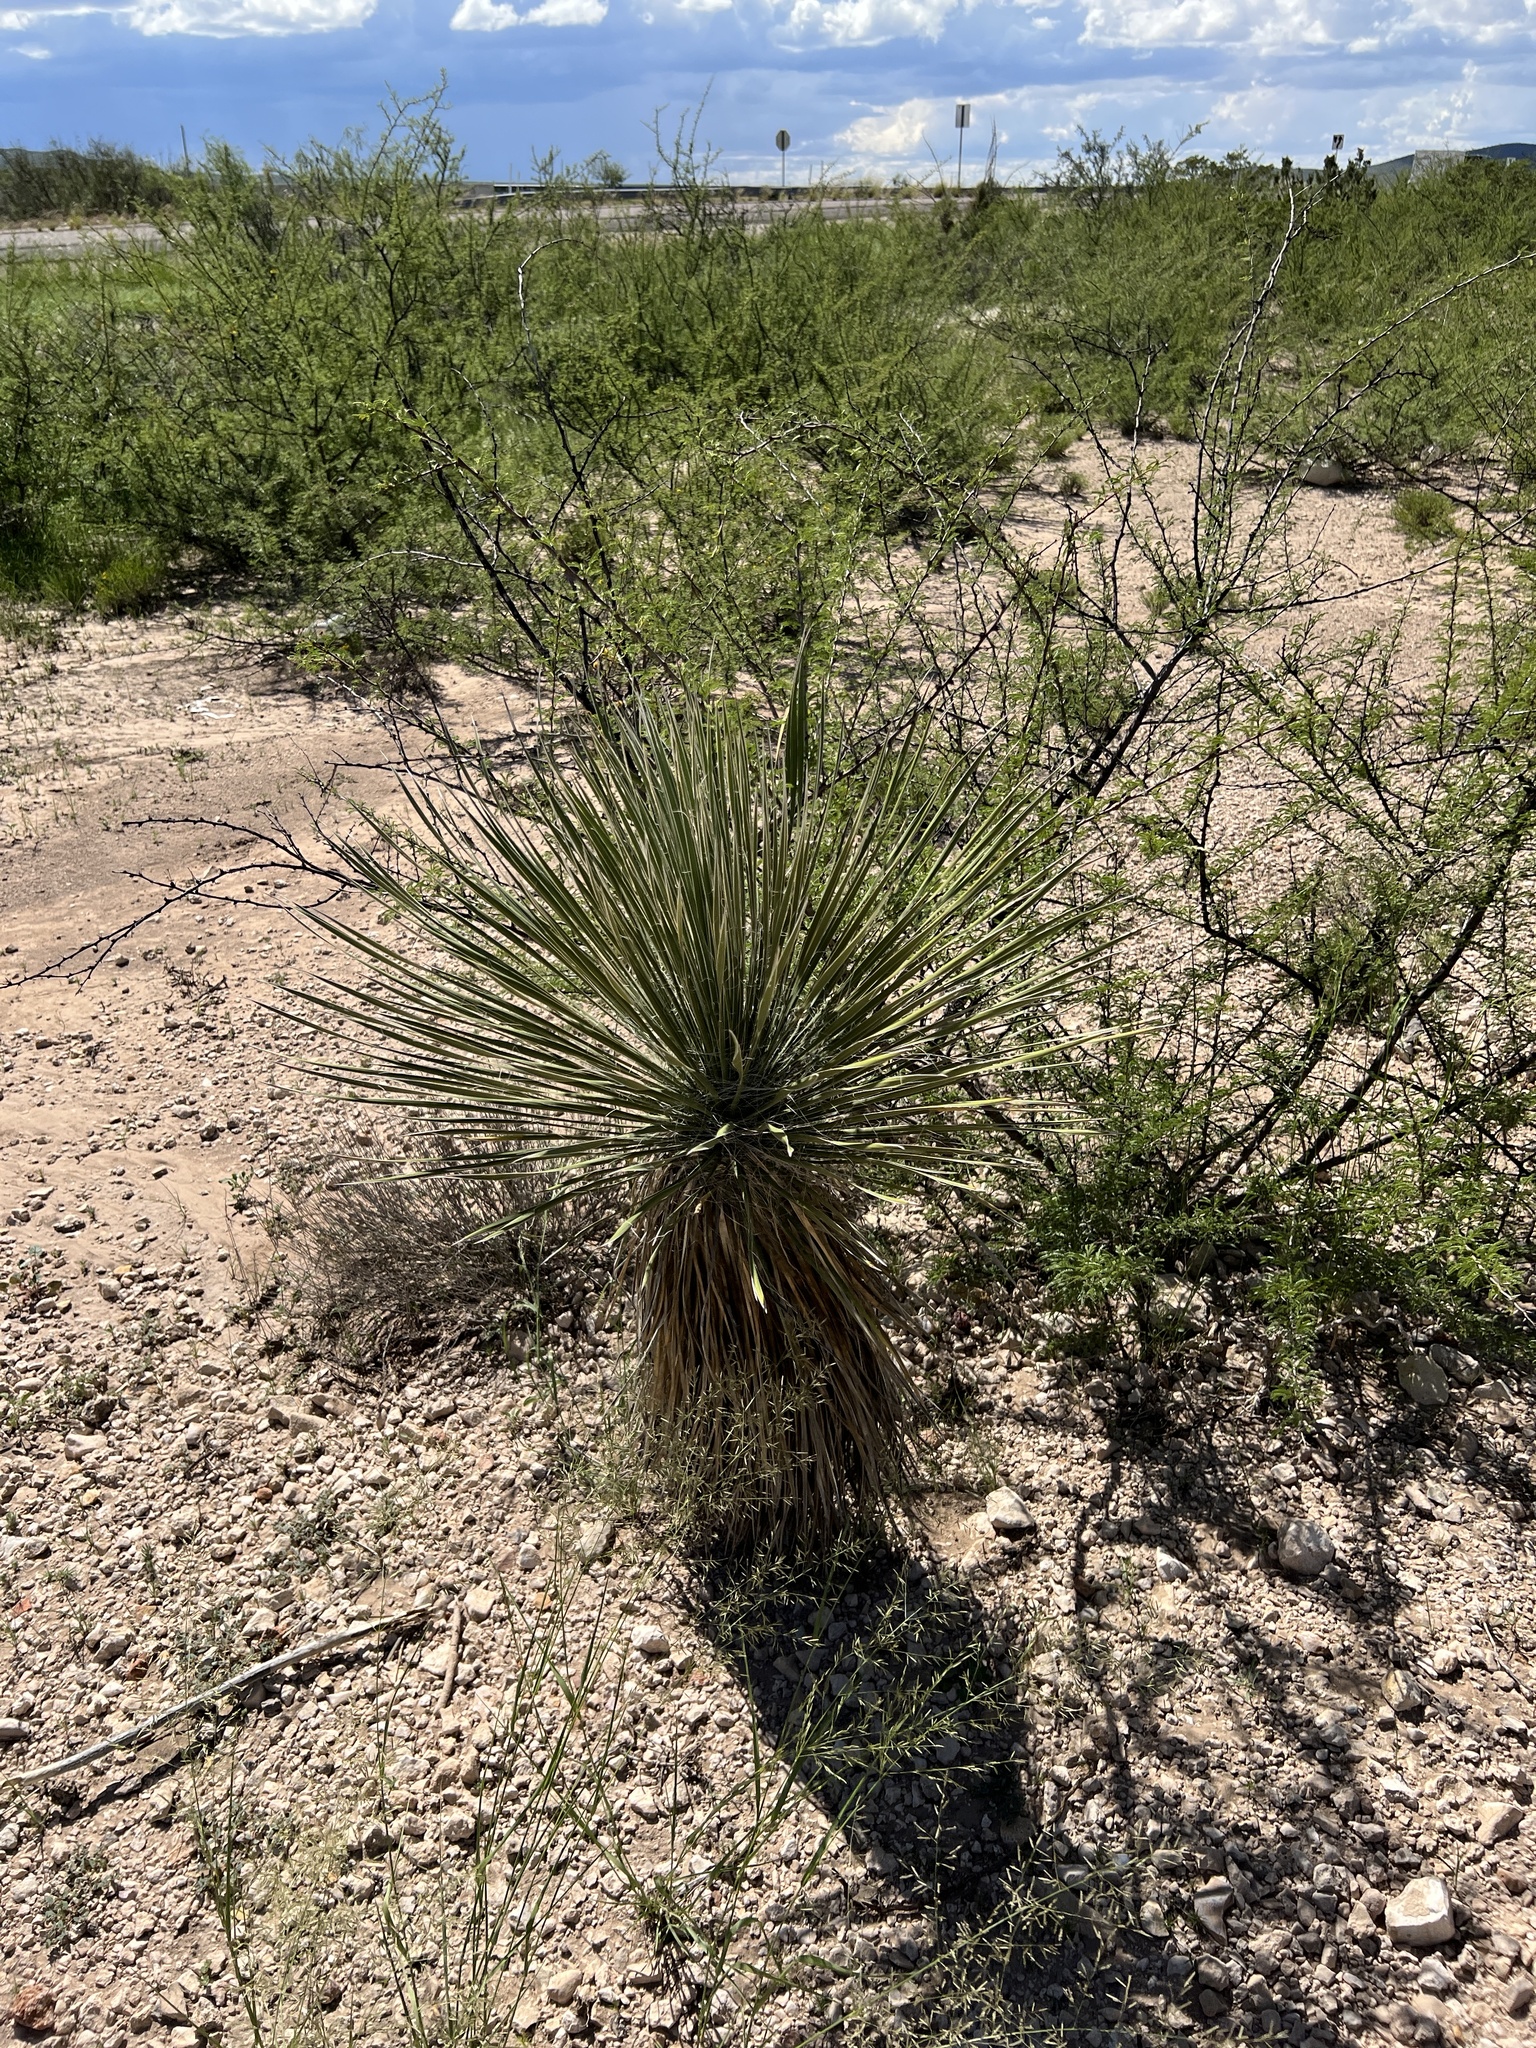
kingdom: Plantae
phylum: Tracheophyta
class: Liliopsida
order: Asparagales
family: Asparagaceae
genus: Yucca
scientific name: Yucca elata
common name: Palmella
